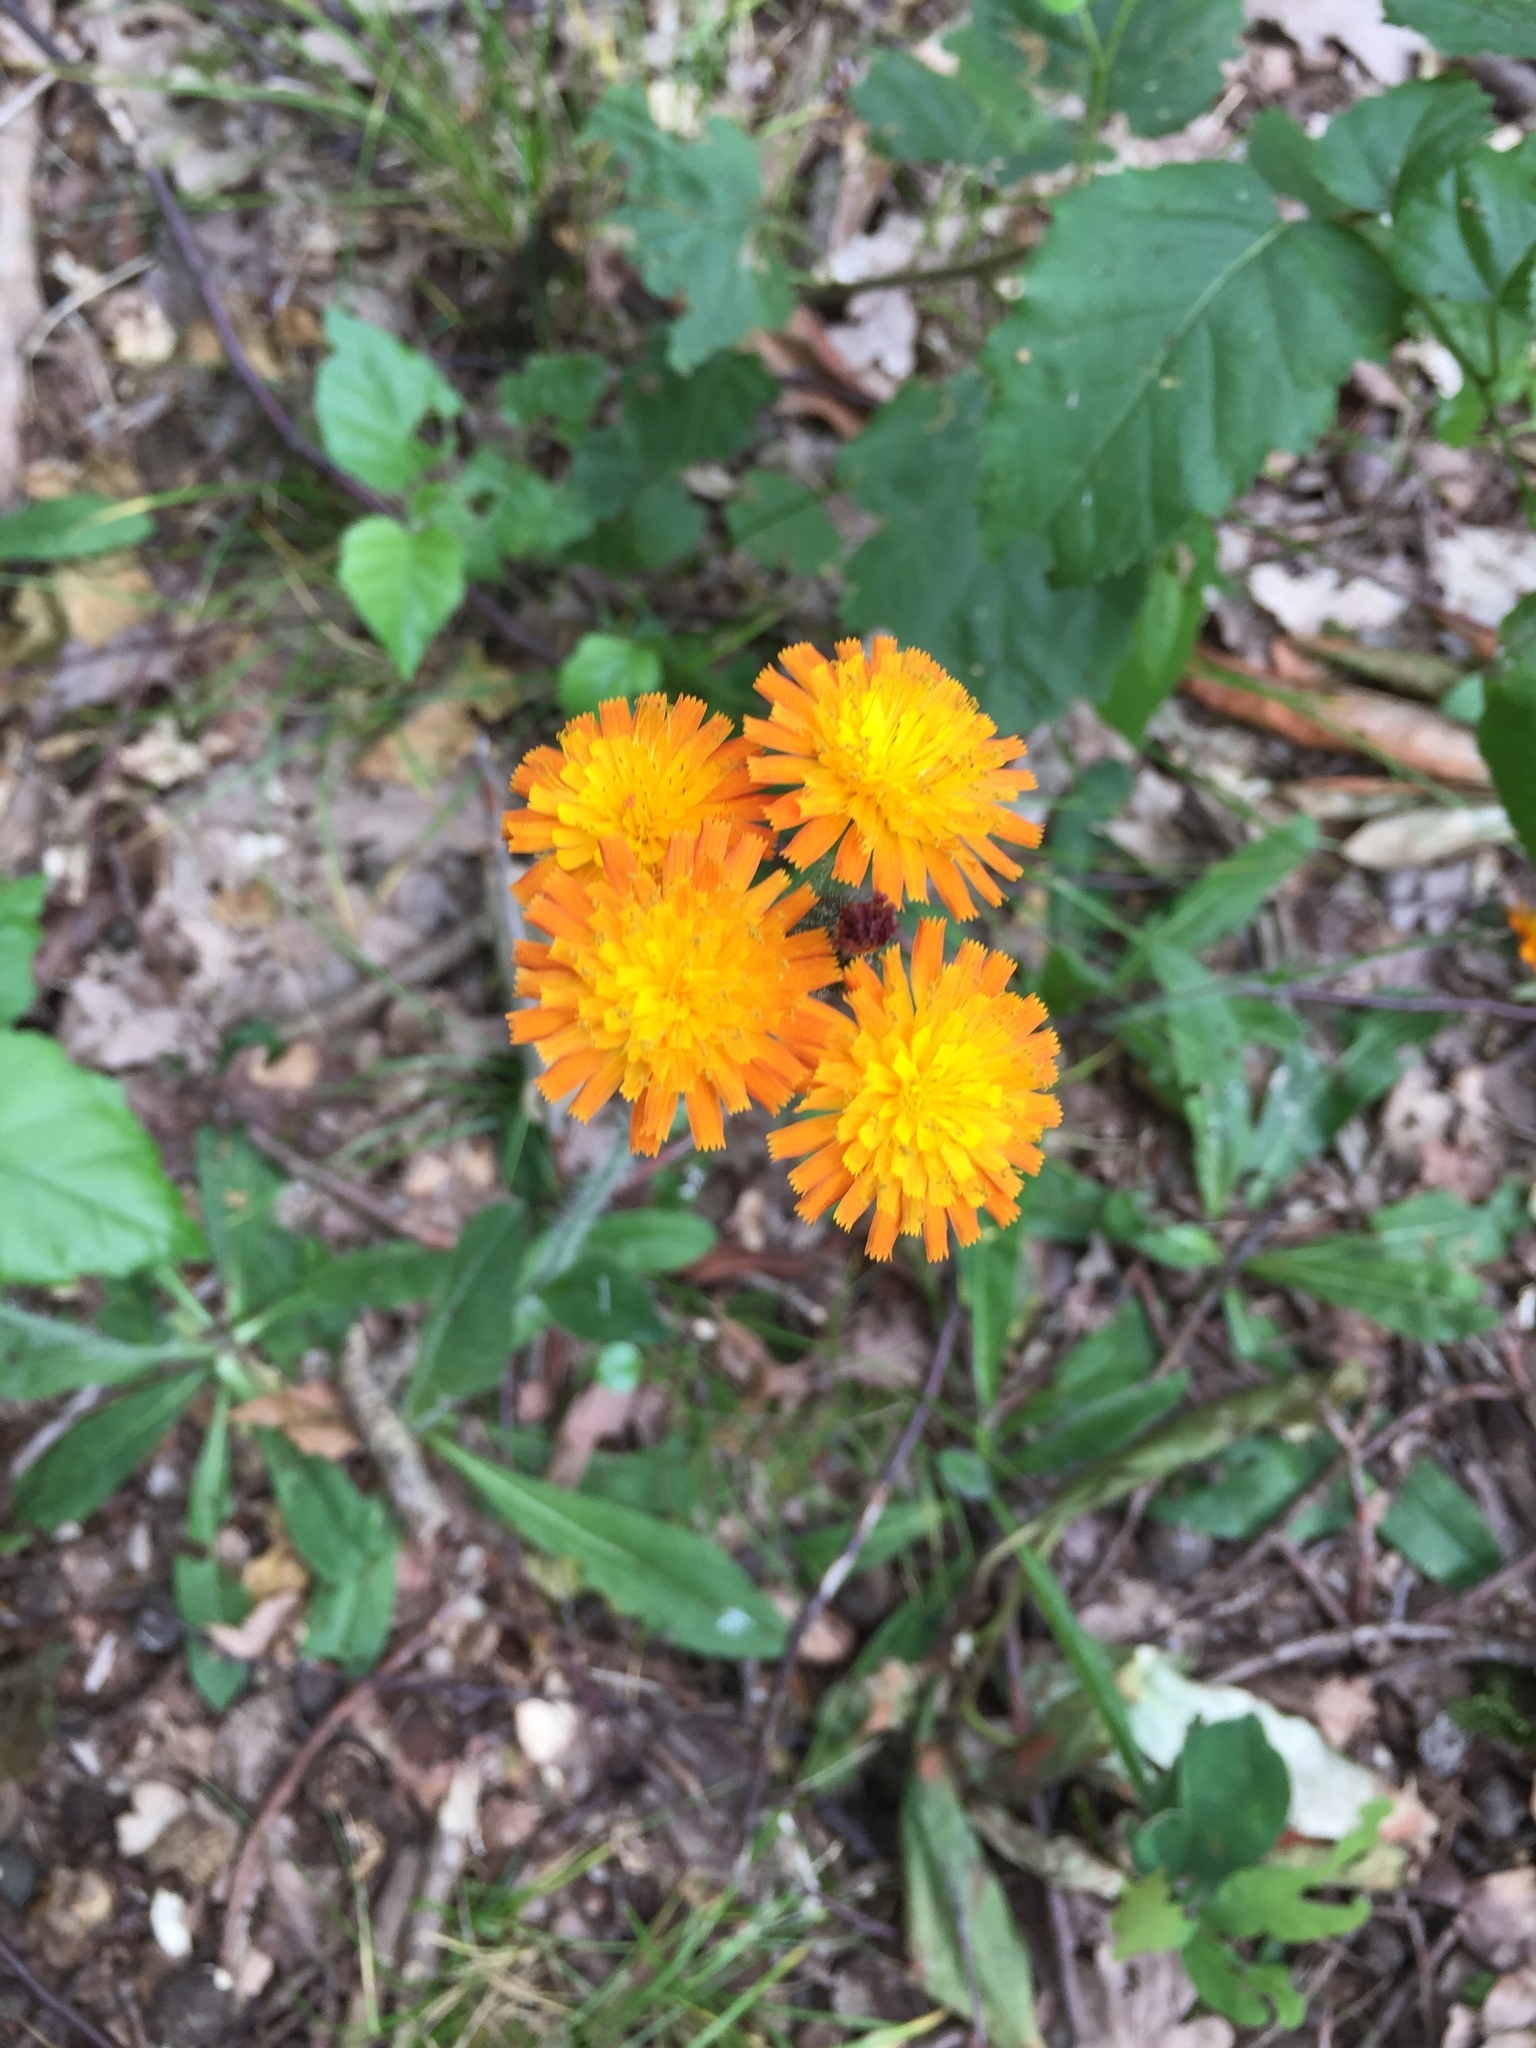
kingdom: Plantae
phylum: Tracheophyta
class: Magnoliopsida
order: Asterales
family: Asteraceae
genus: Pilosella
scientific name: Pilosella aurantiaca
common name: Fox-and-cubs
